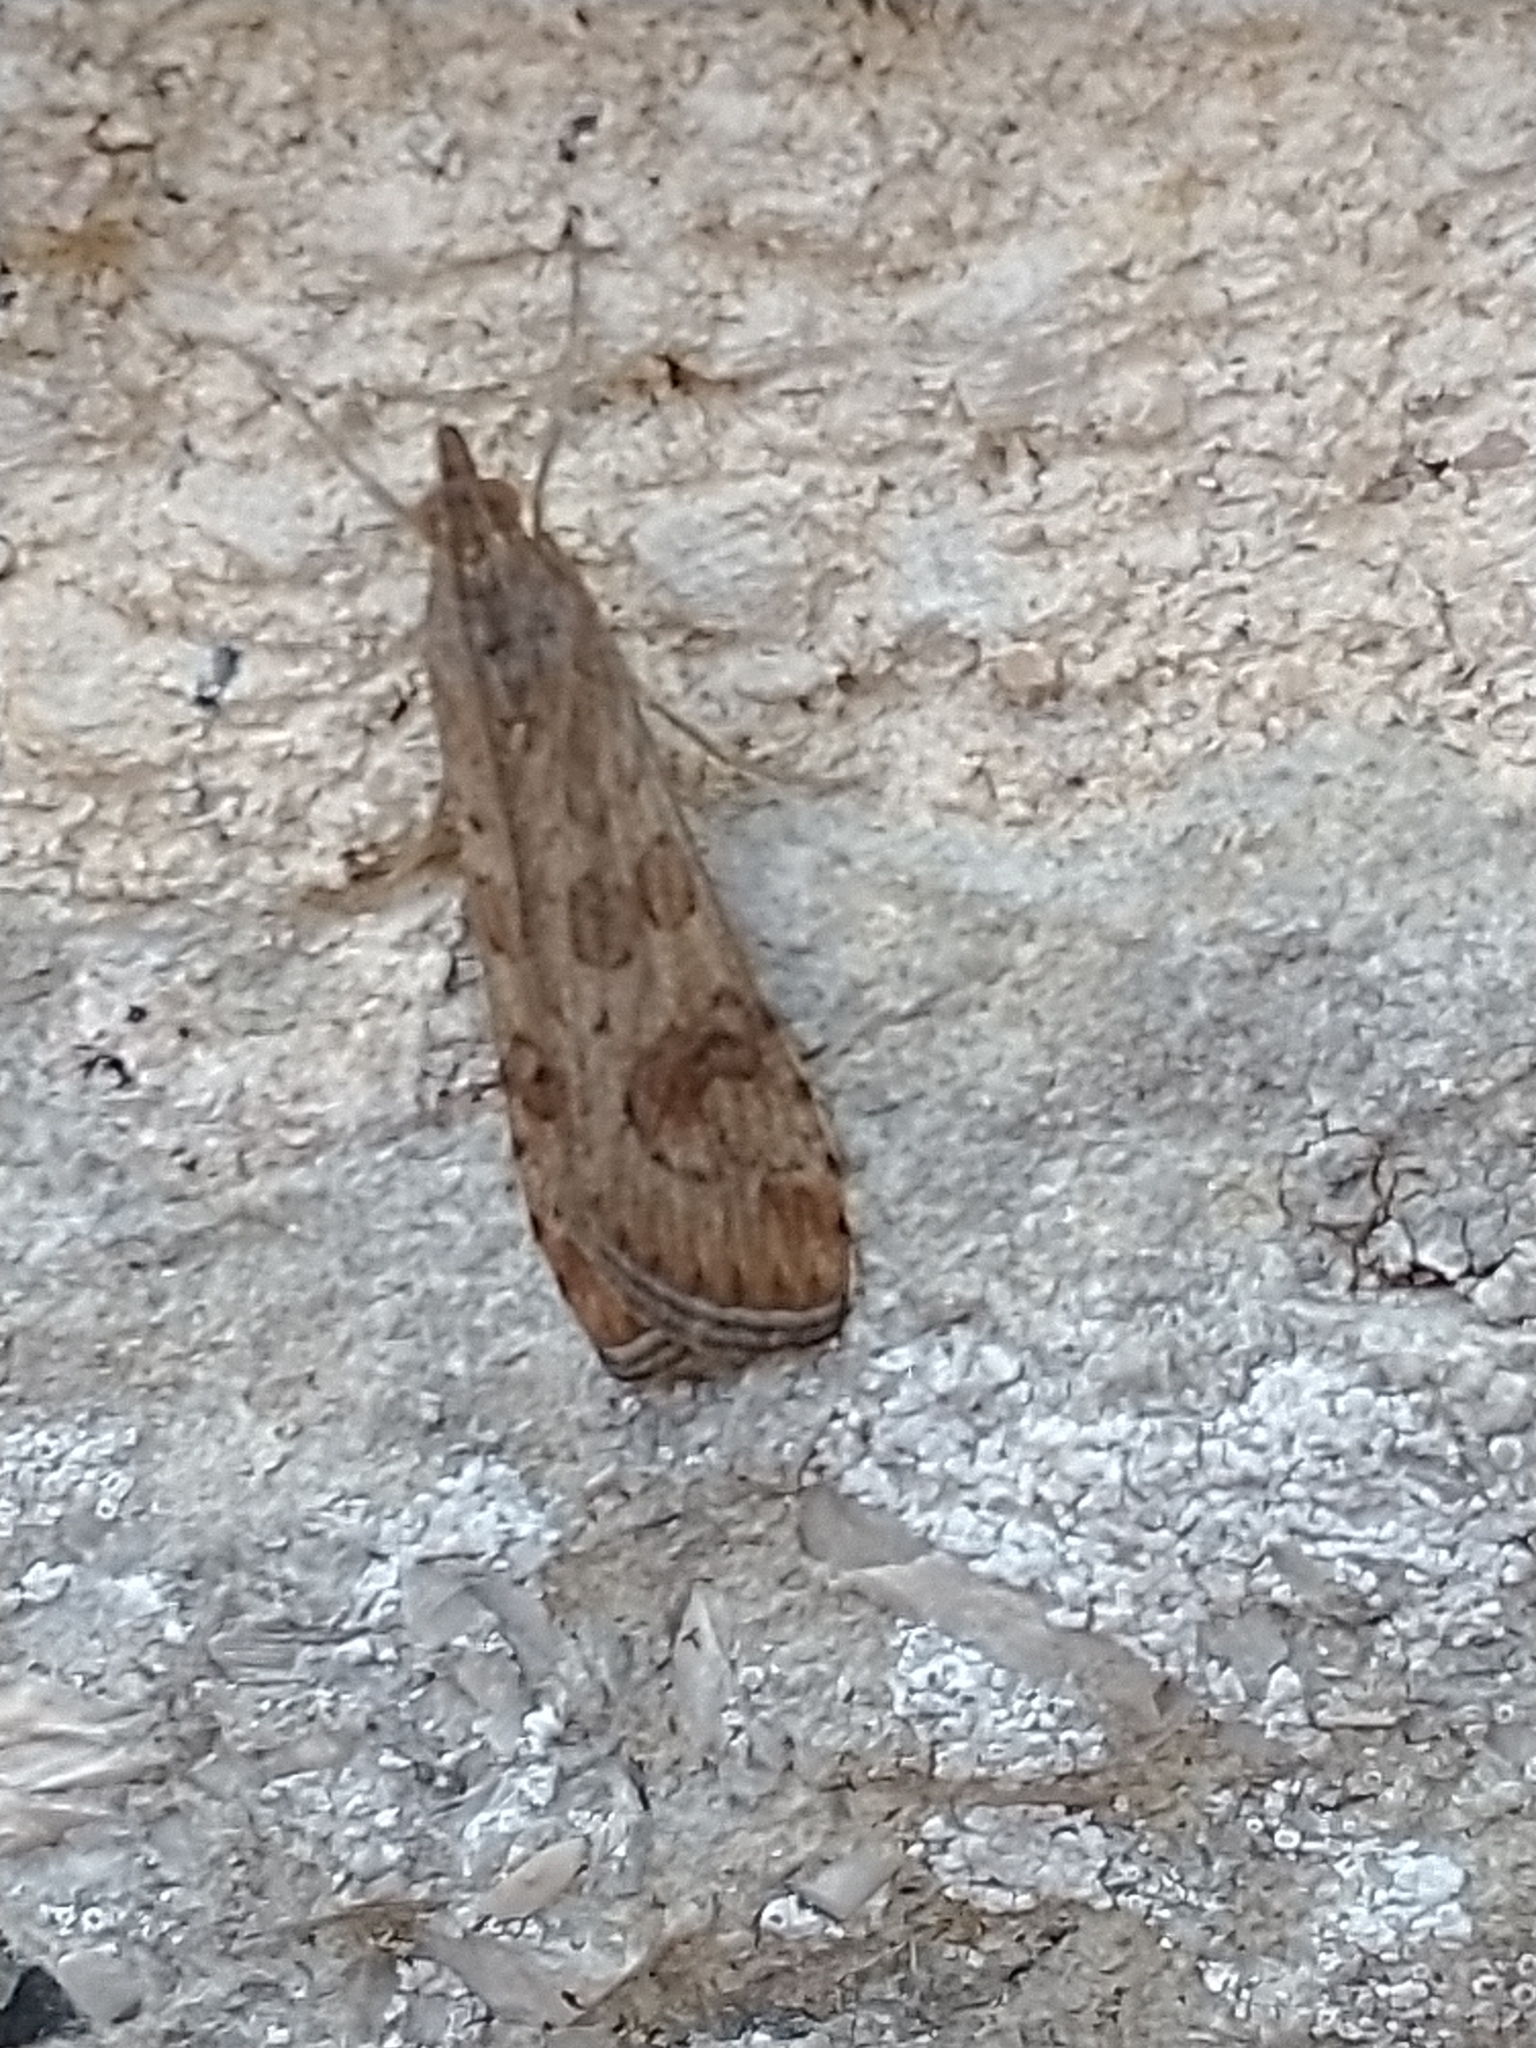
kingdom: Animalia
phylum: Arthropoda
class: Insecta
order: Lepidoptera
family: Crambidae
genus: Nomophila
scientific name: Nomophila noctuella
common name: Rush veneer
